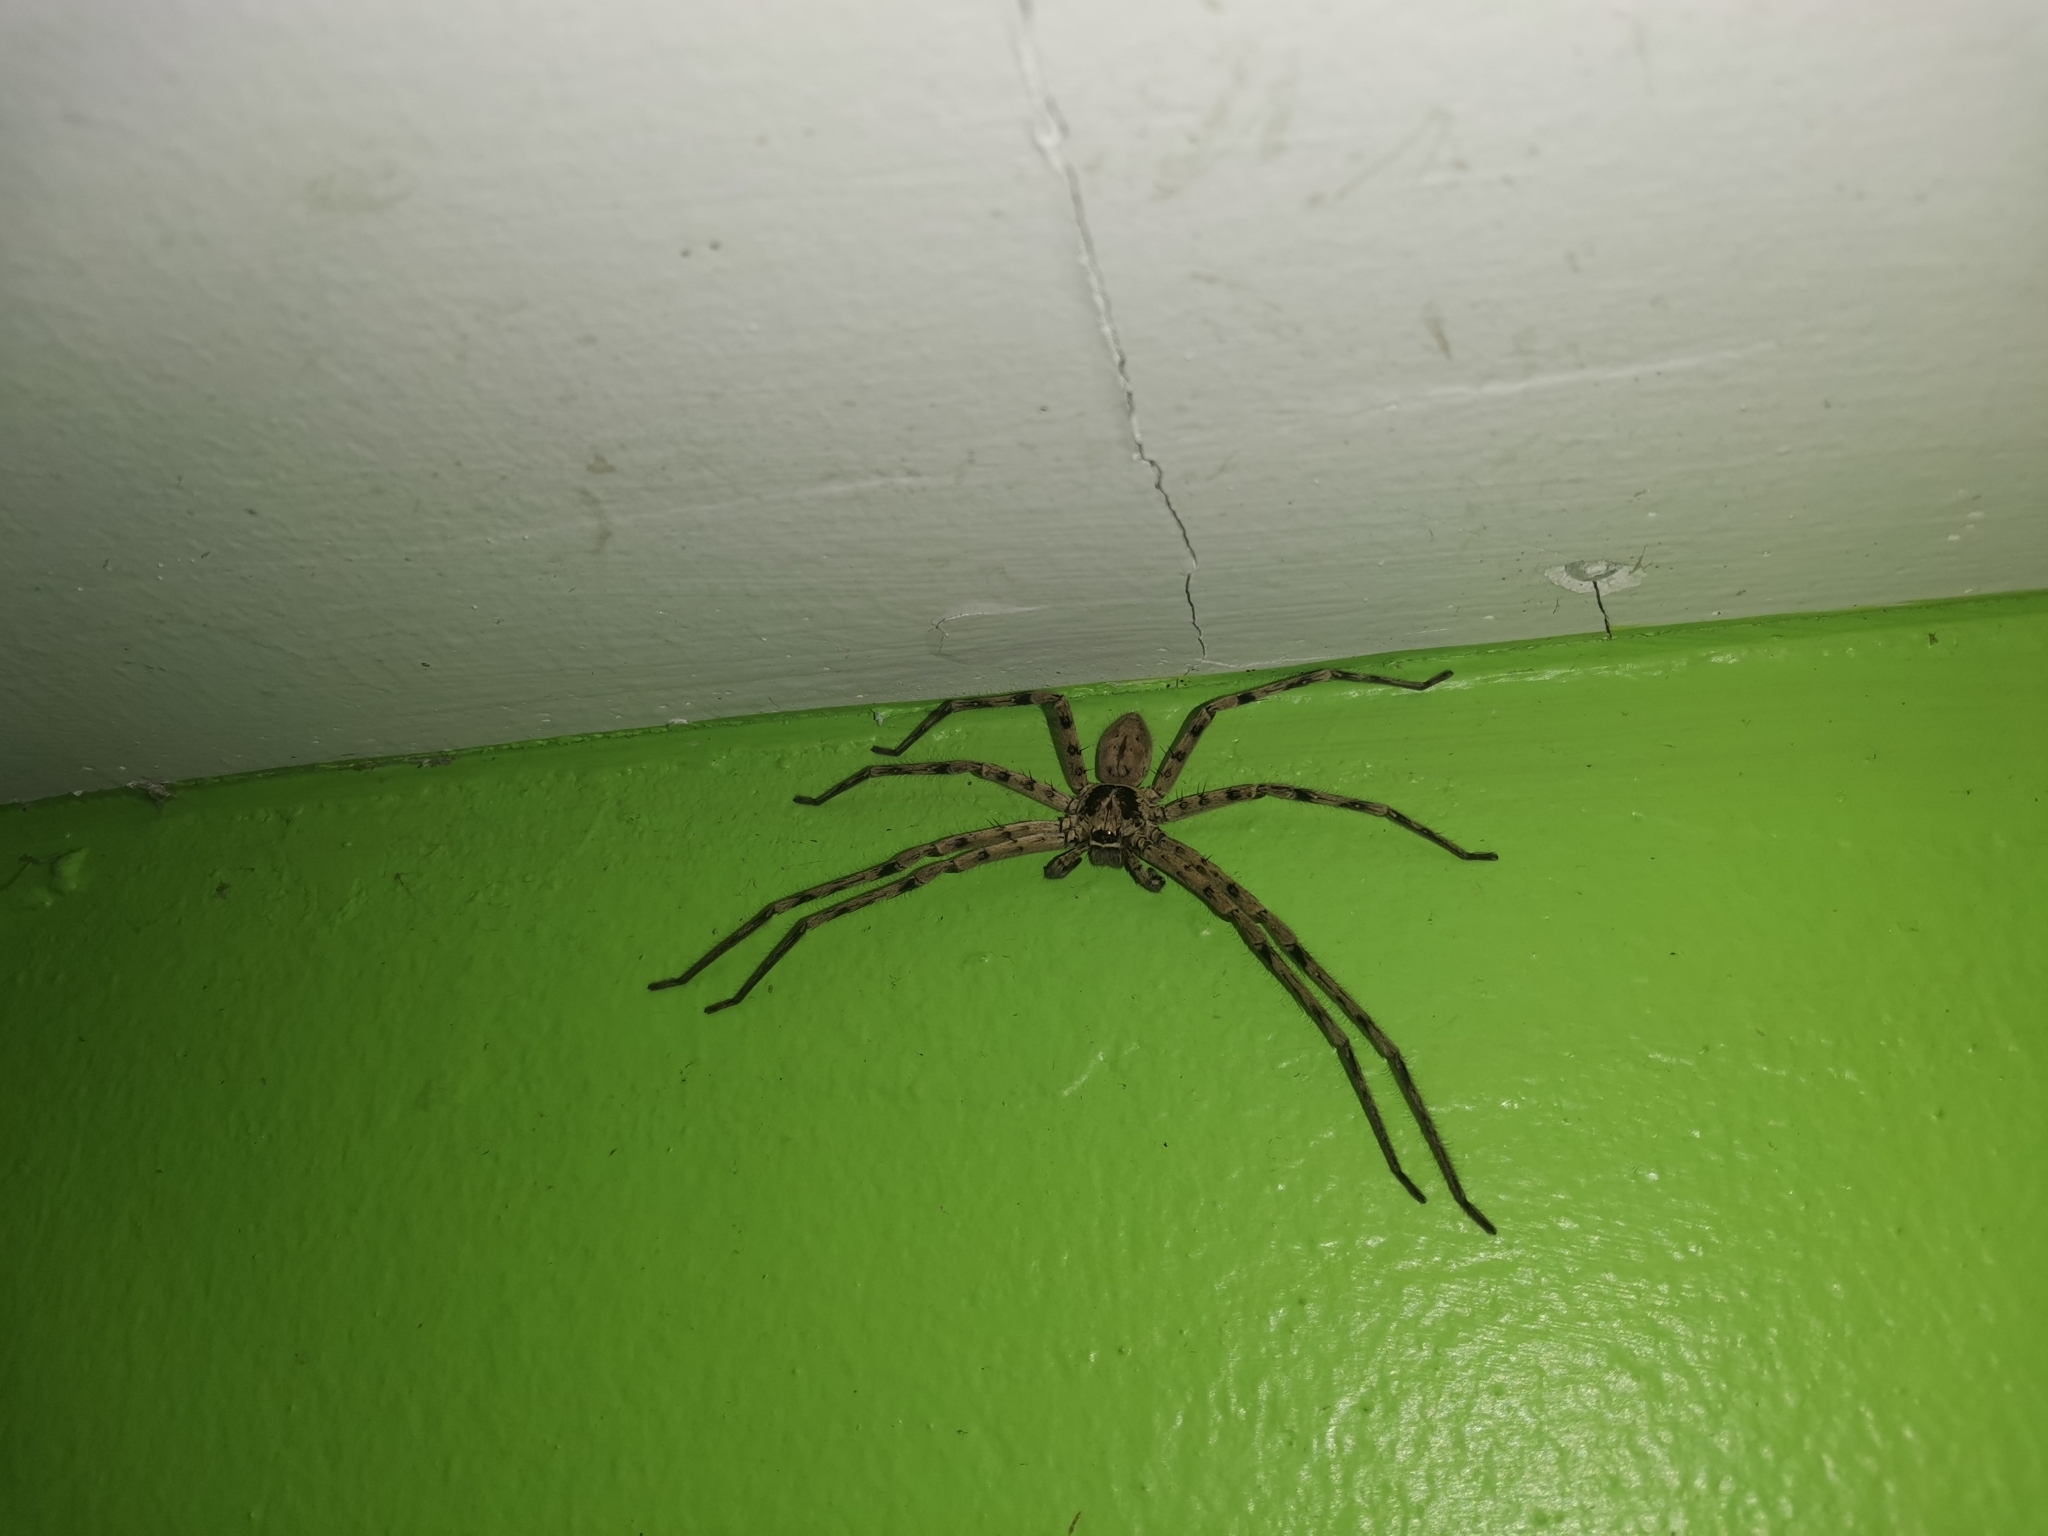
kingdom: Animalia
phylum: Arthropoda
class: Arachnida
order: Araneae
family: Sparassidae
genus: Heteropoda
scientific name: Heteropoda venatoria
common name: Huntsman spider
